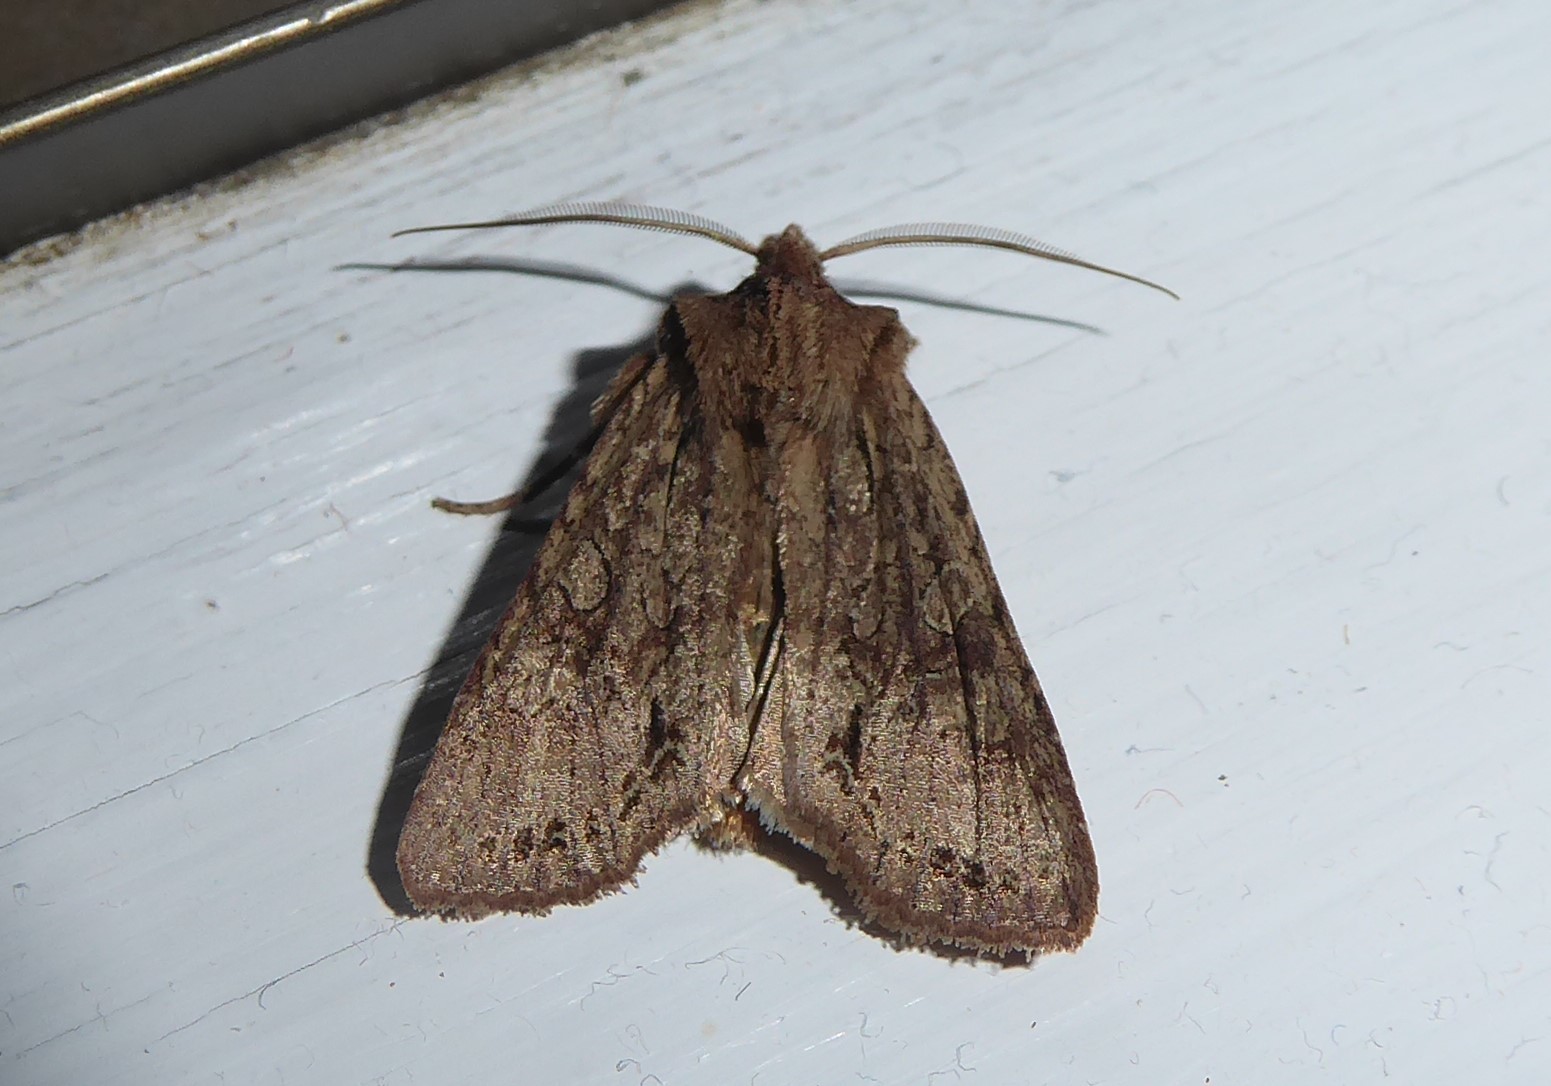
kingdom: Animalia
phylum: Arthropoda
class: Insecta
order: Lepidoptera
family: Noctuidae
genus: Ichneutica
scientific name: Ichneutica
